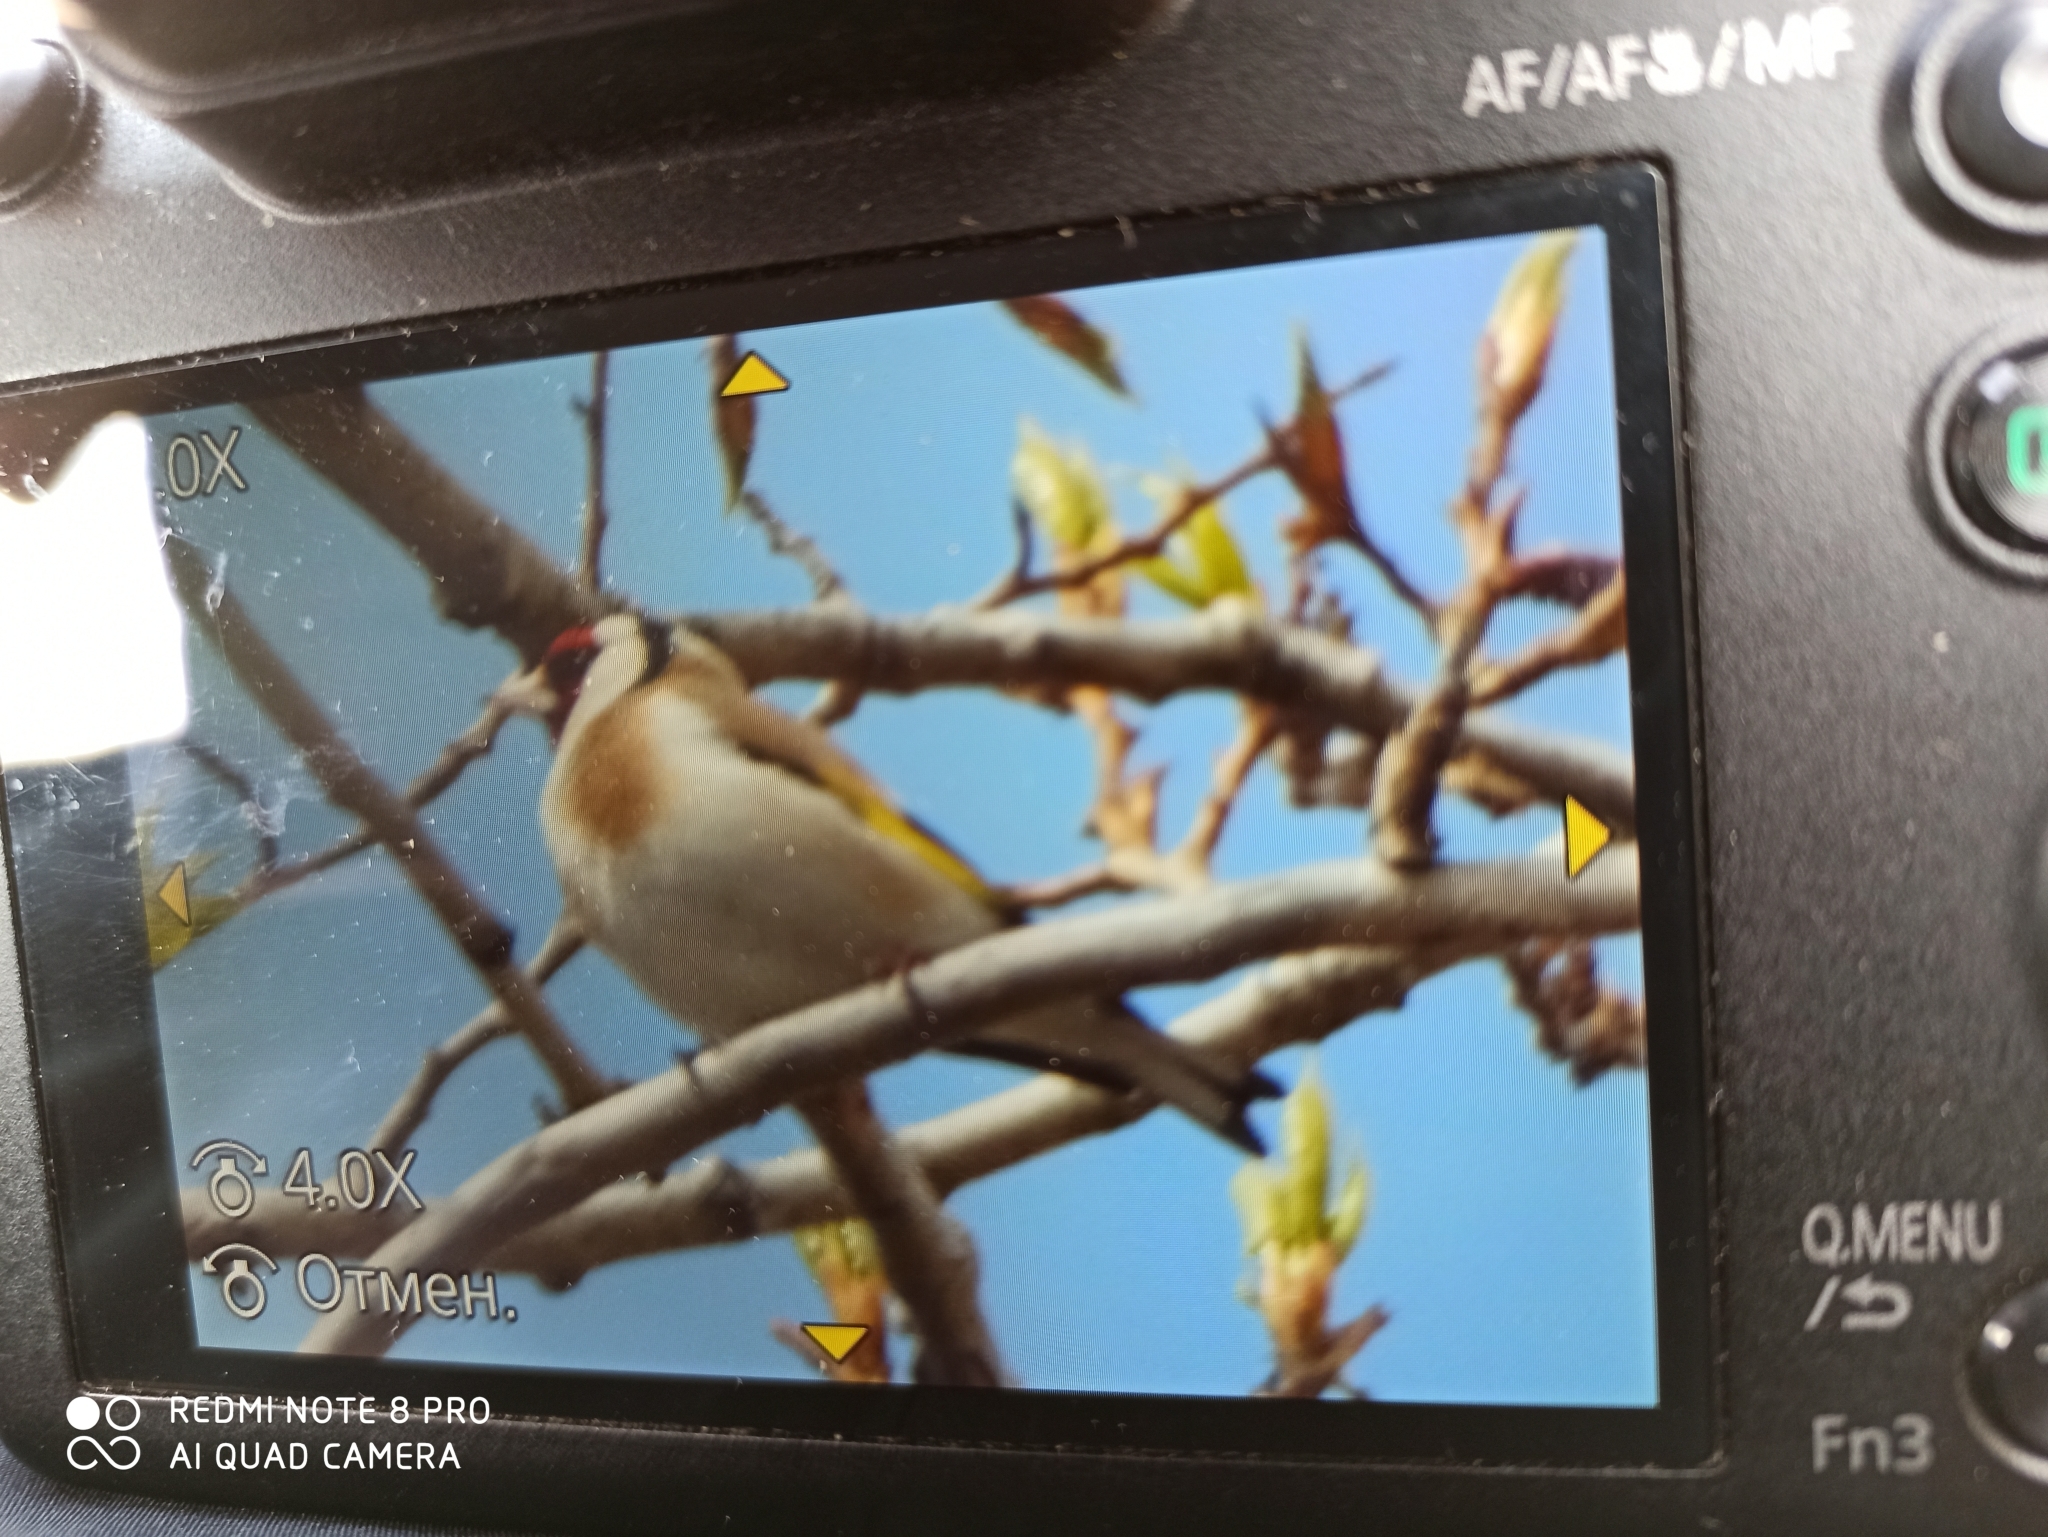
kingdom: Animalia
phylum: Chordata
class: Aves
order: Passeriformes
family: Fringillidae
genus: Carduelis
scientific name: Carduelis carduelis
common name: European goldfinch
